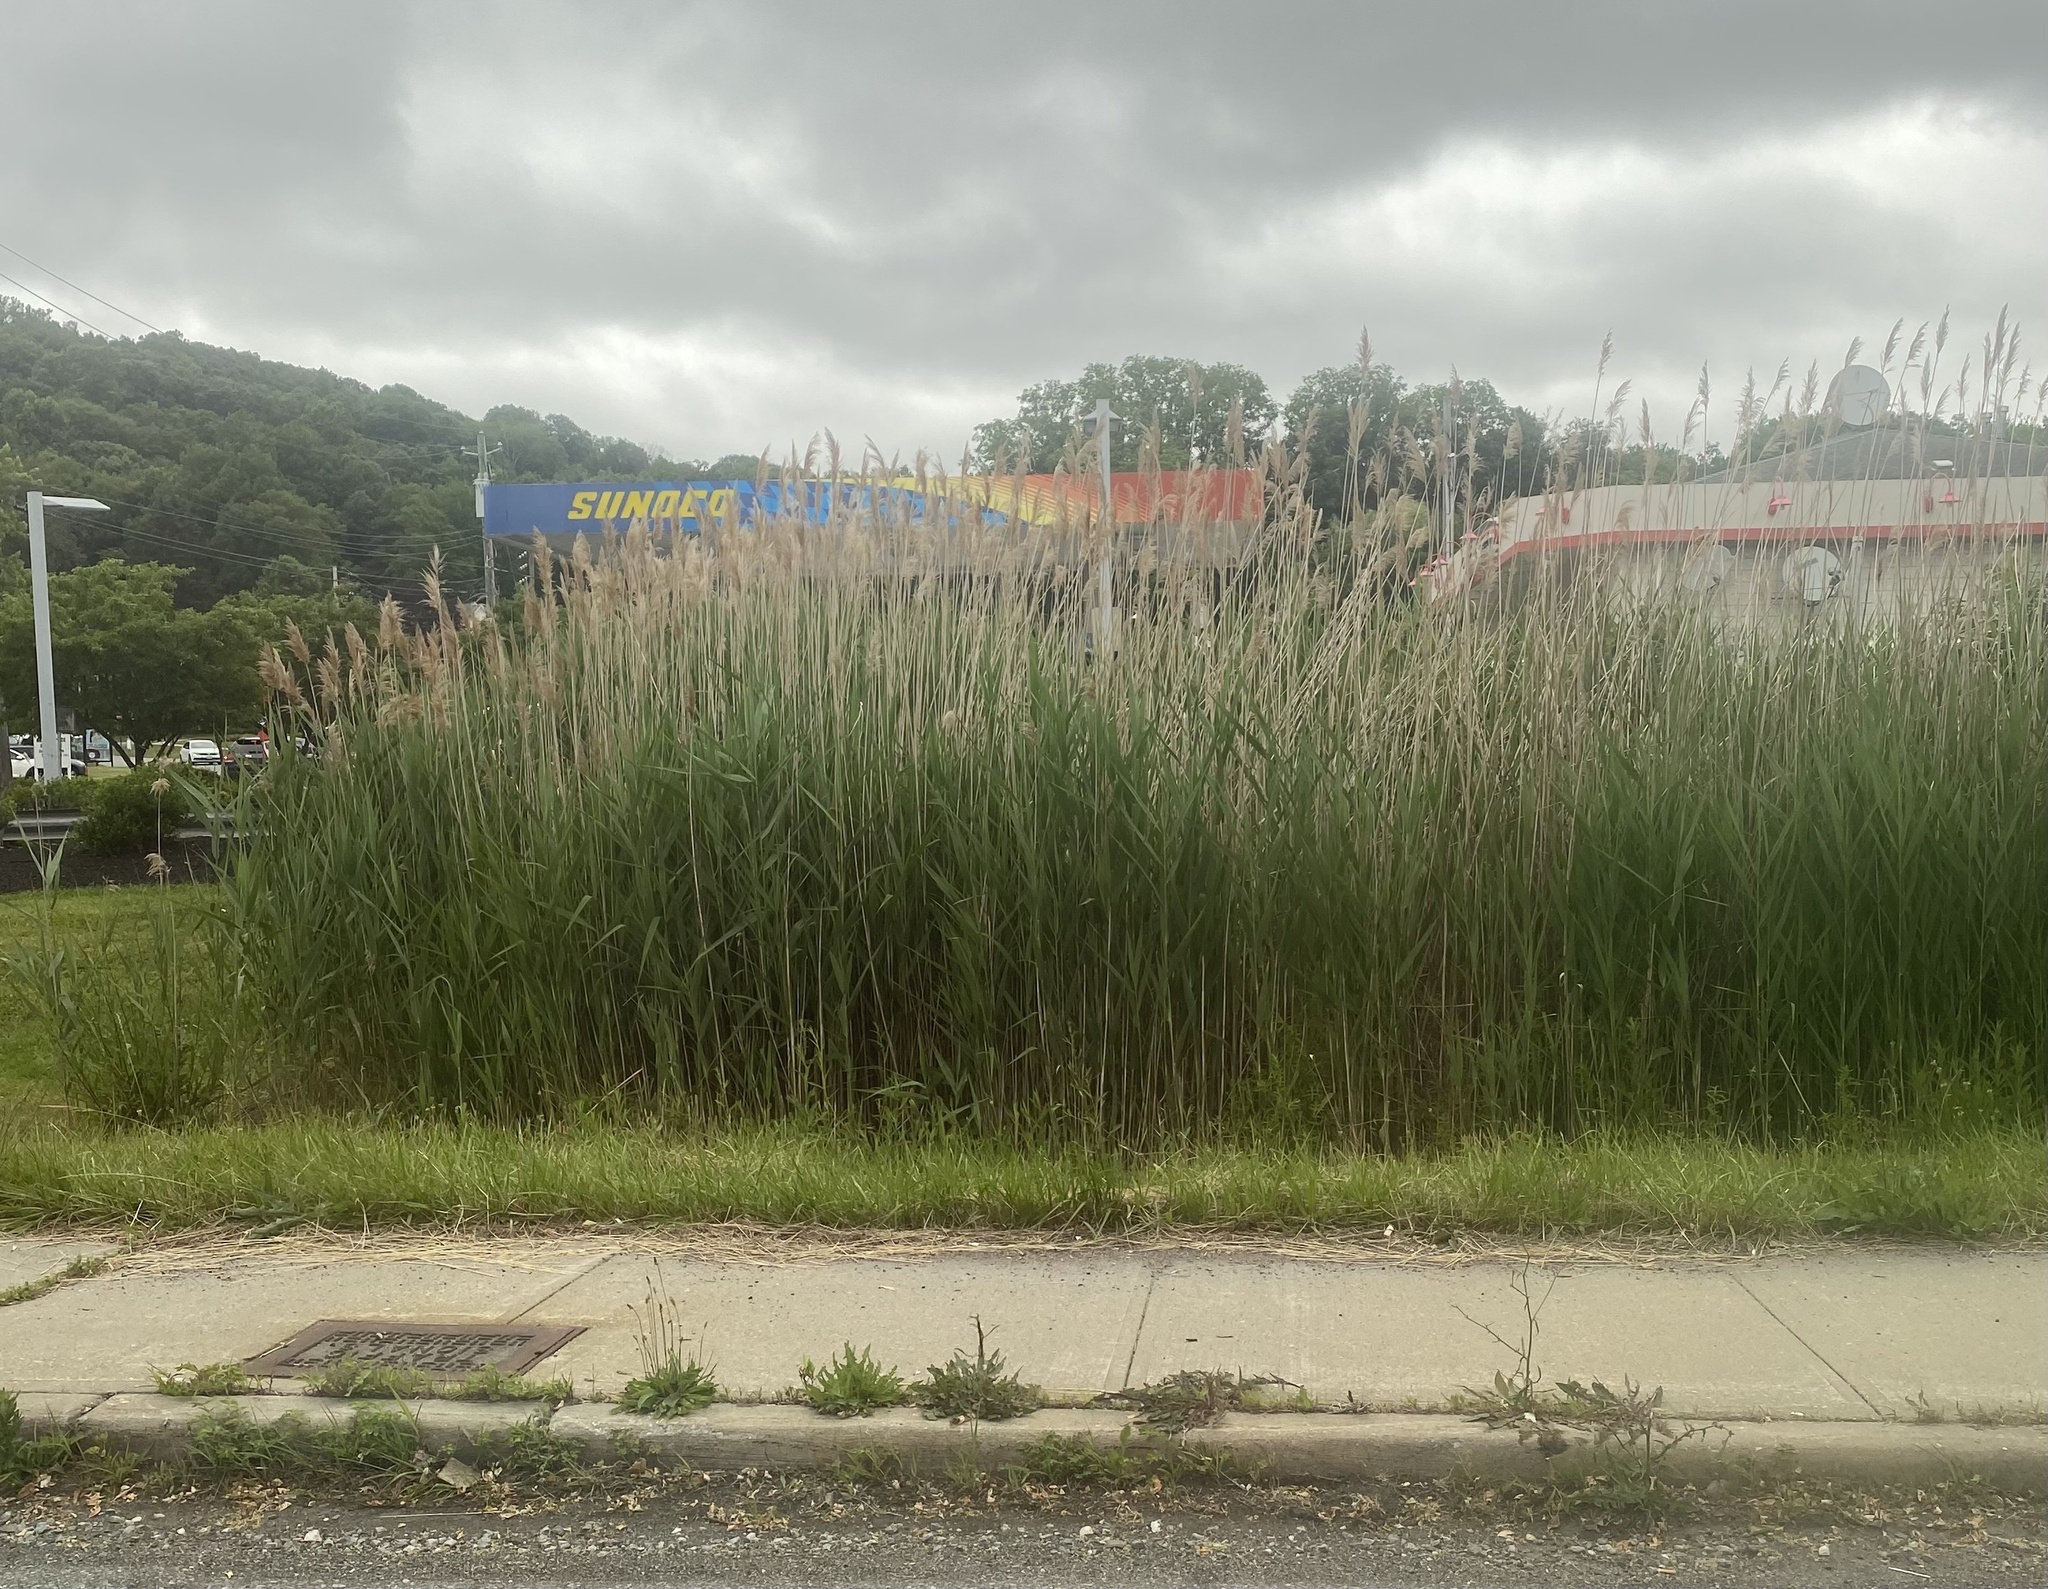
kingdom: Plantae
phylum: Tracheophyta
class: Liliopsida
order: Poales
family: Poaceae
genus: Phragmites
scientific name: Phragmites australis
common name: Common reed
